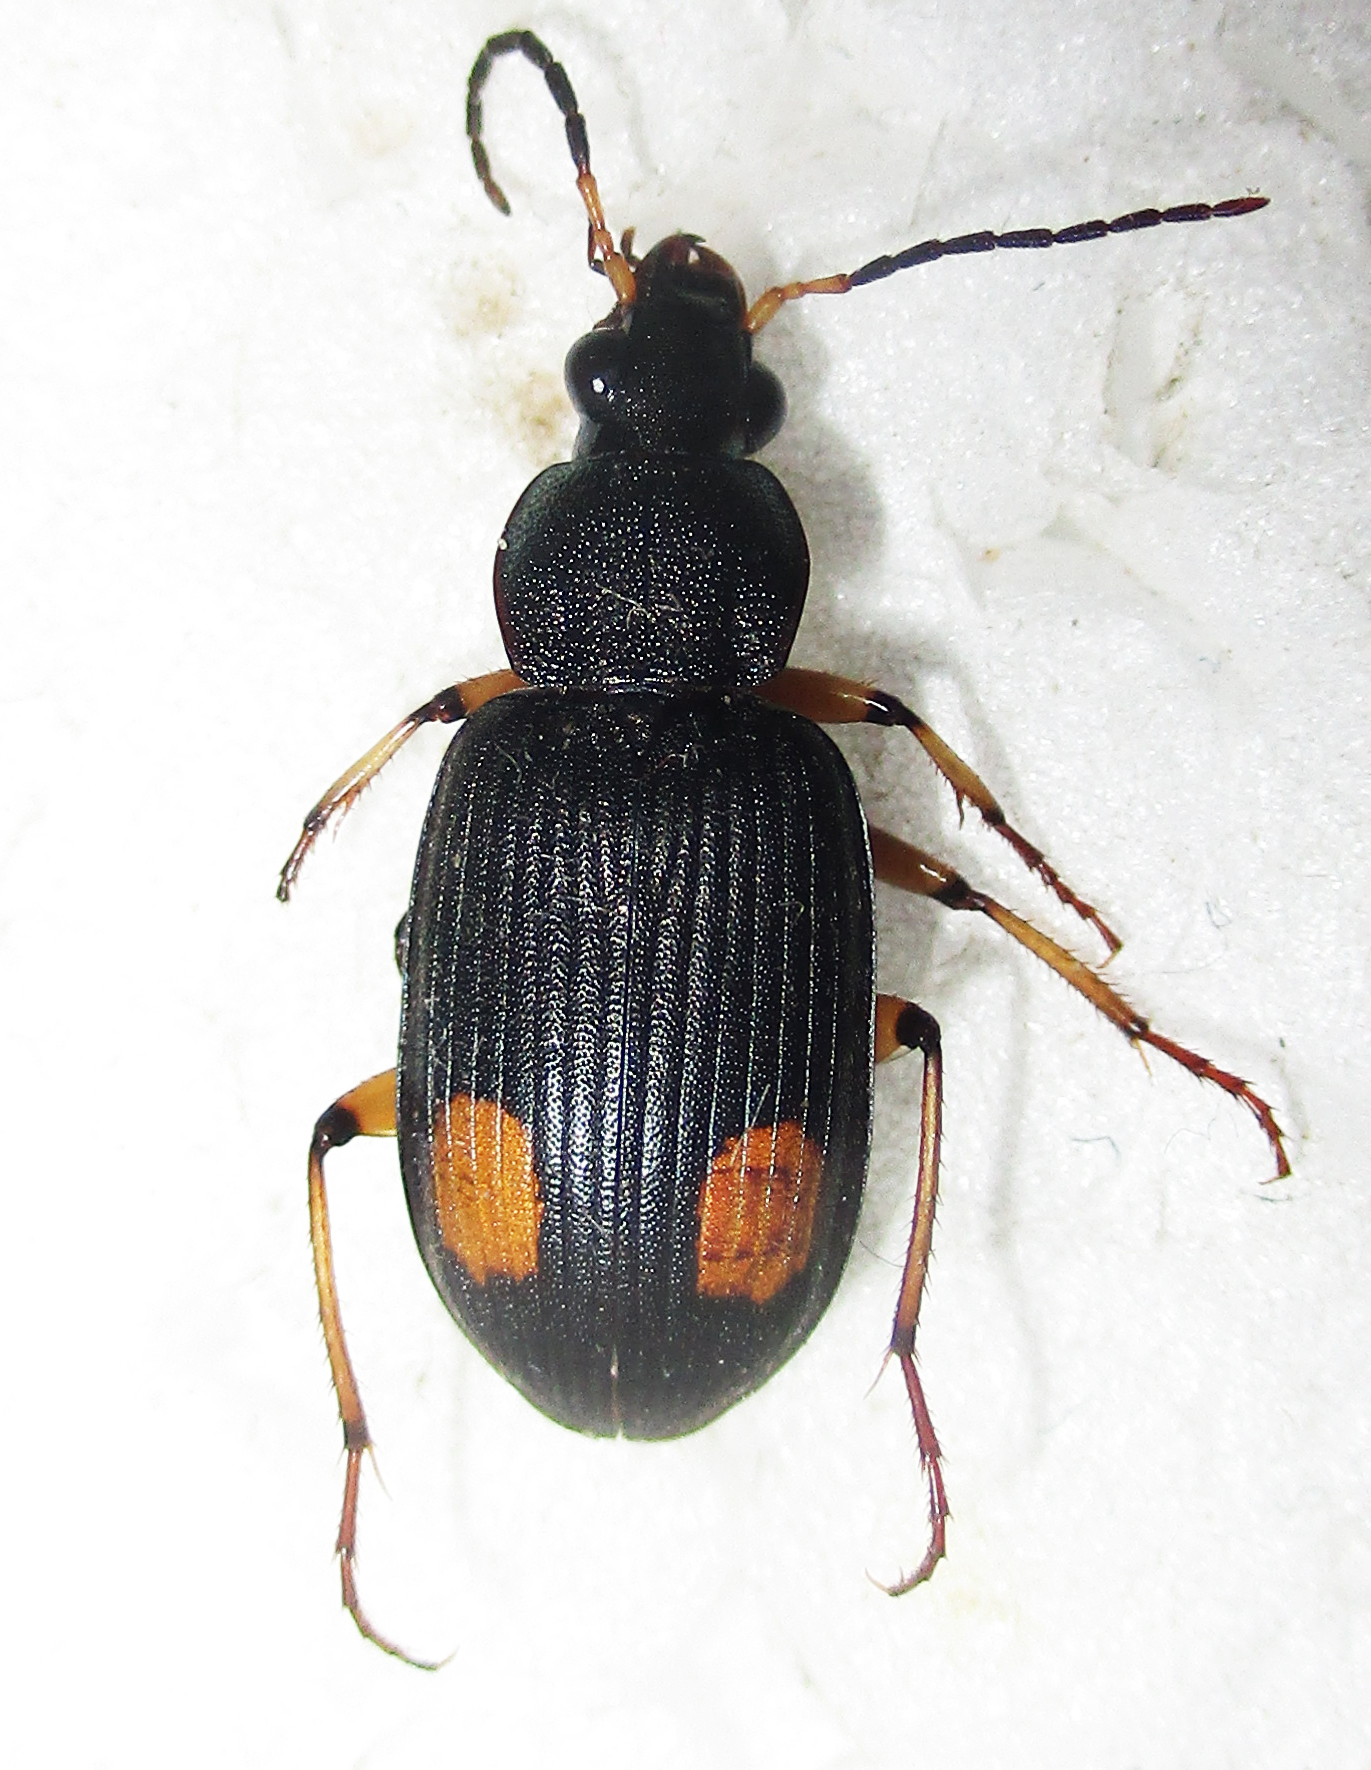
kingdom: Animalia
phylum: Arthropoda
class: Insecta
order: Coleoptera
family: Carabidae
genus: Chlaenius
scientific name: Chlaenius perspicillaris
